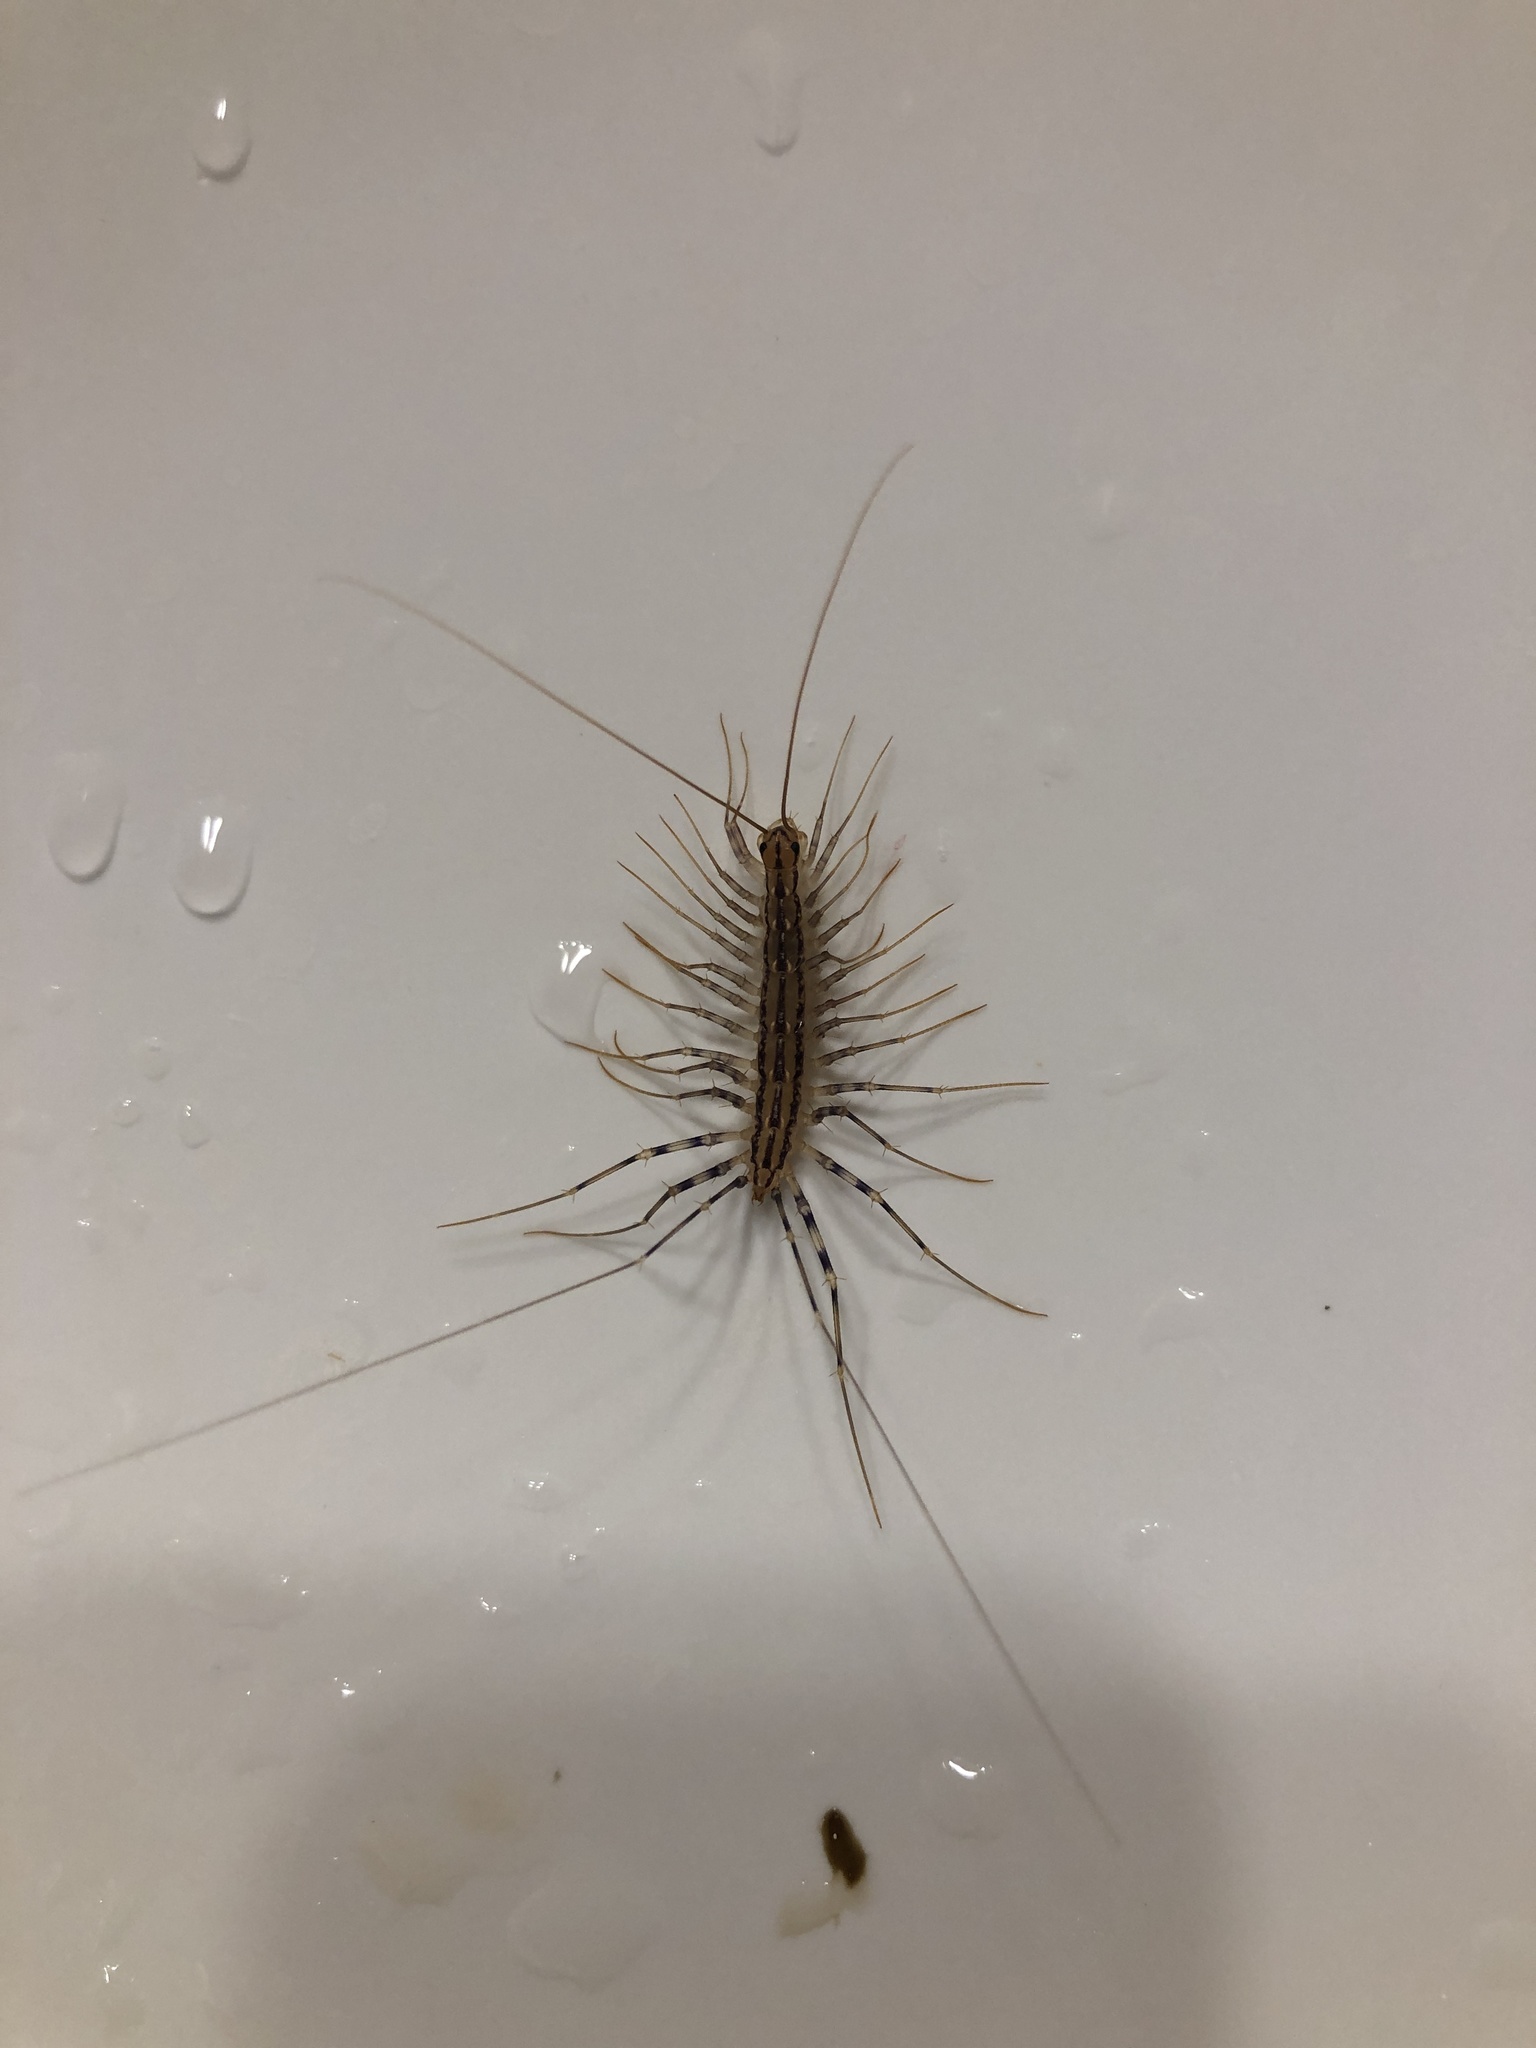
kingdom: Animalia
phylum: Arthropoda
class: Chilopoda
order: Scutigeromorpha
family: Scutigeridae
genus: Scutigera
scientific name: Scutigera coleoptrata
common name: House centipede
